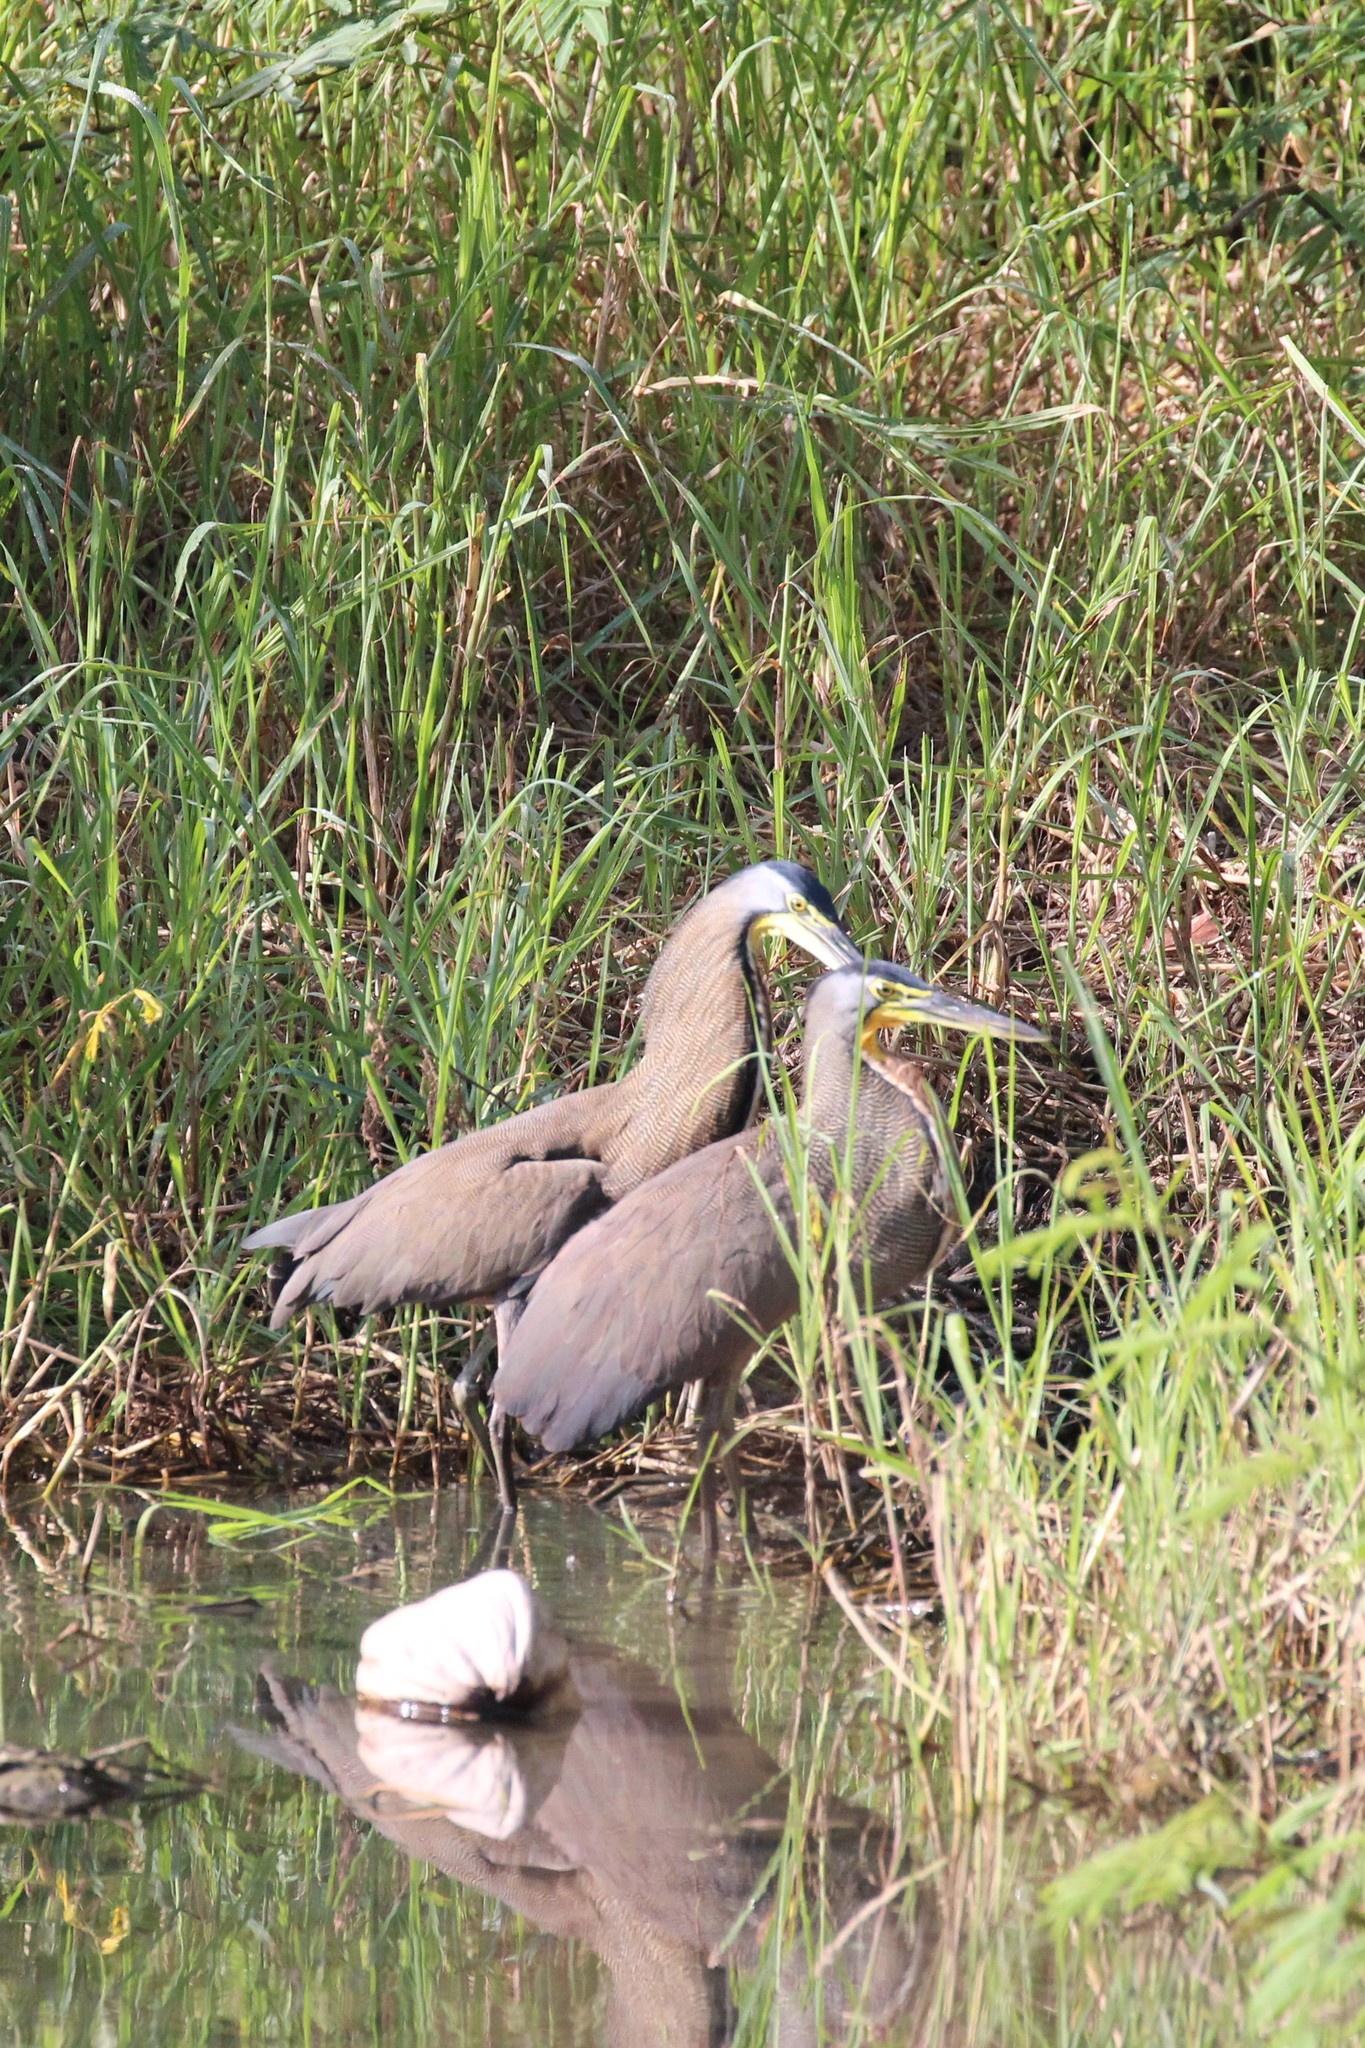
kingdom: Animalia
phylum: Chordata
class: Aves
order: Pelecaniformes
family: Ardeidae
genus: Tigrisoma
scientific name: Tigrisoma mexicanum
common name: Bare-throated tiger-heron
